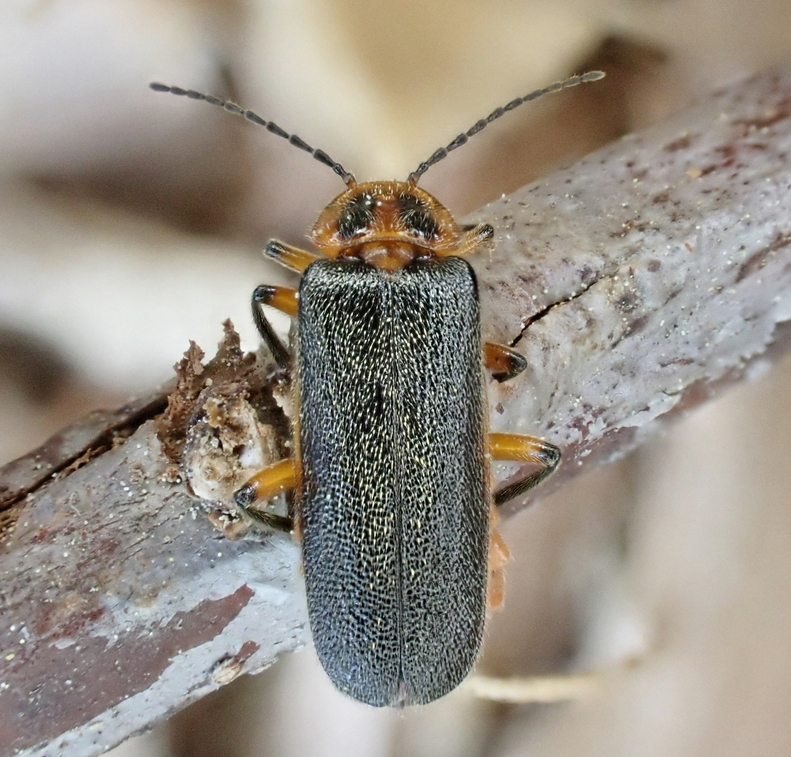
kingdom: Animalia
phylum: Arthropoda
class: Insecta
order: Coleoptera
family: Cantharidae
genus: Atalantycha
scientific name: Atalantycha bilineata
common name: Two-lined leatherwing
